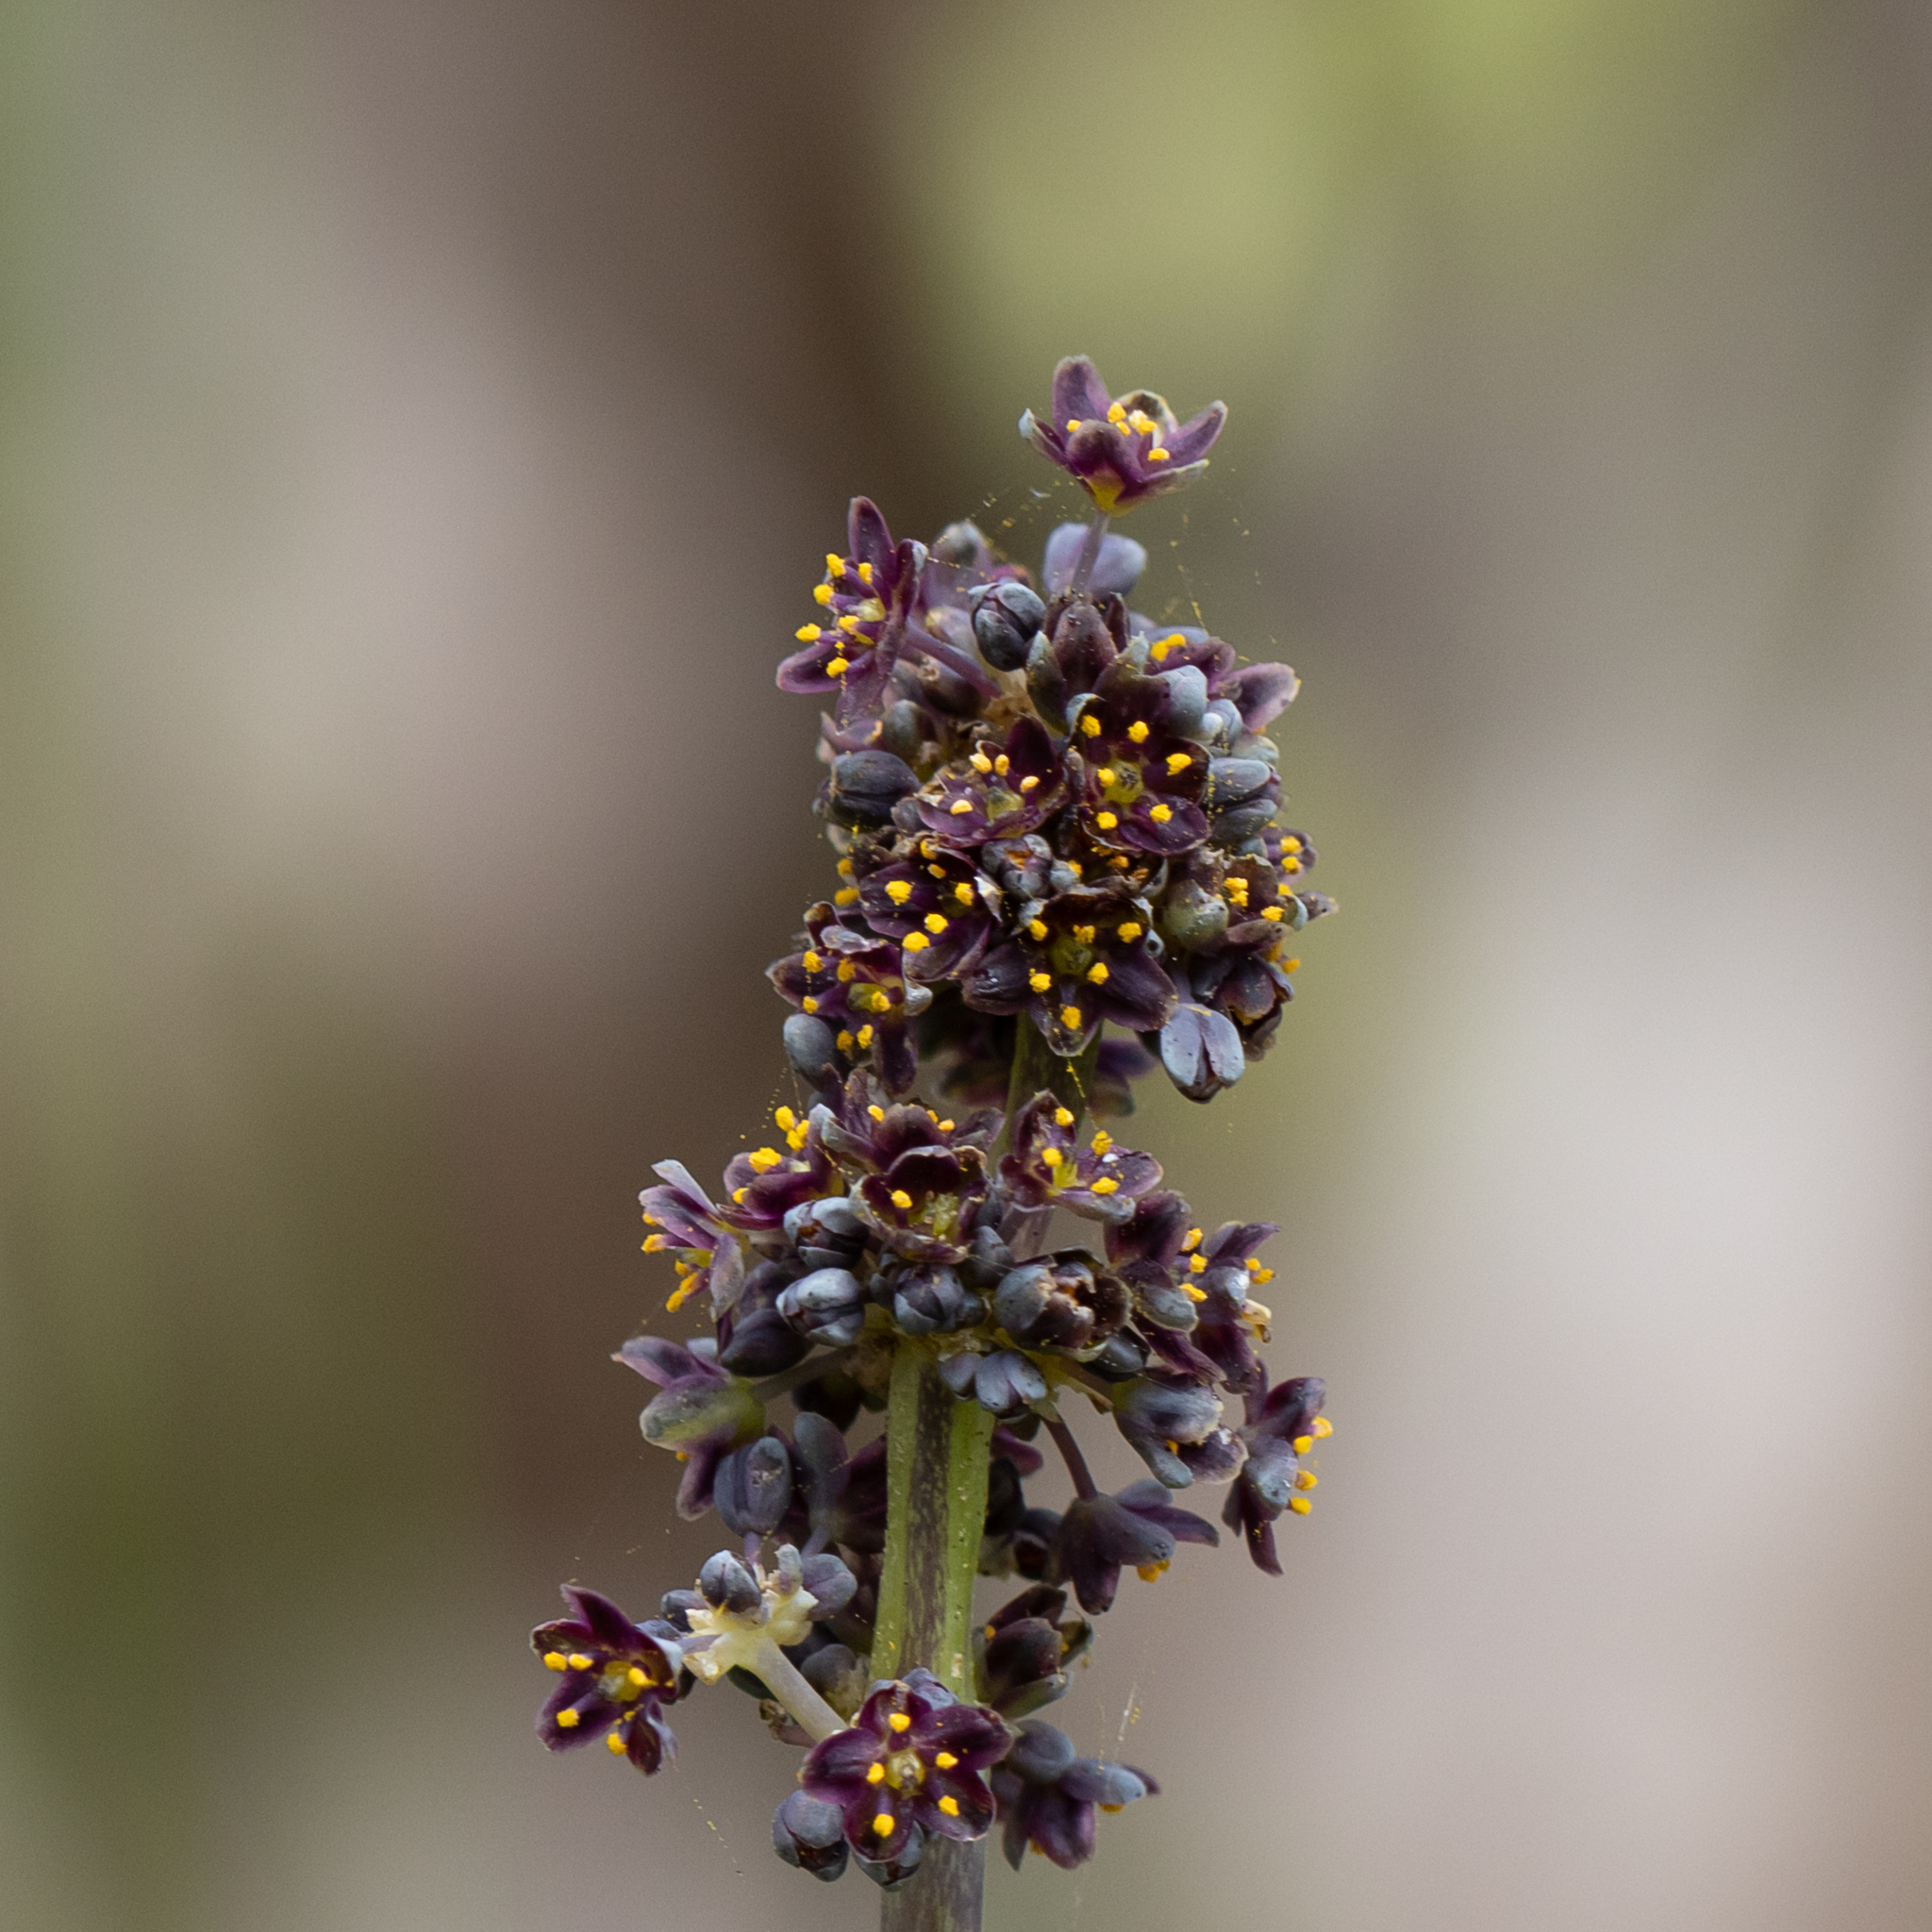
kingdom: Plantae
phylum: Tracheophyta
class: Liliopsida
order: Asparagales
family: Asparagaceae
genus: Lomandra
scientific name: Lomandra purpurea
